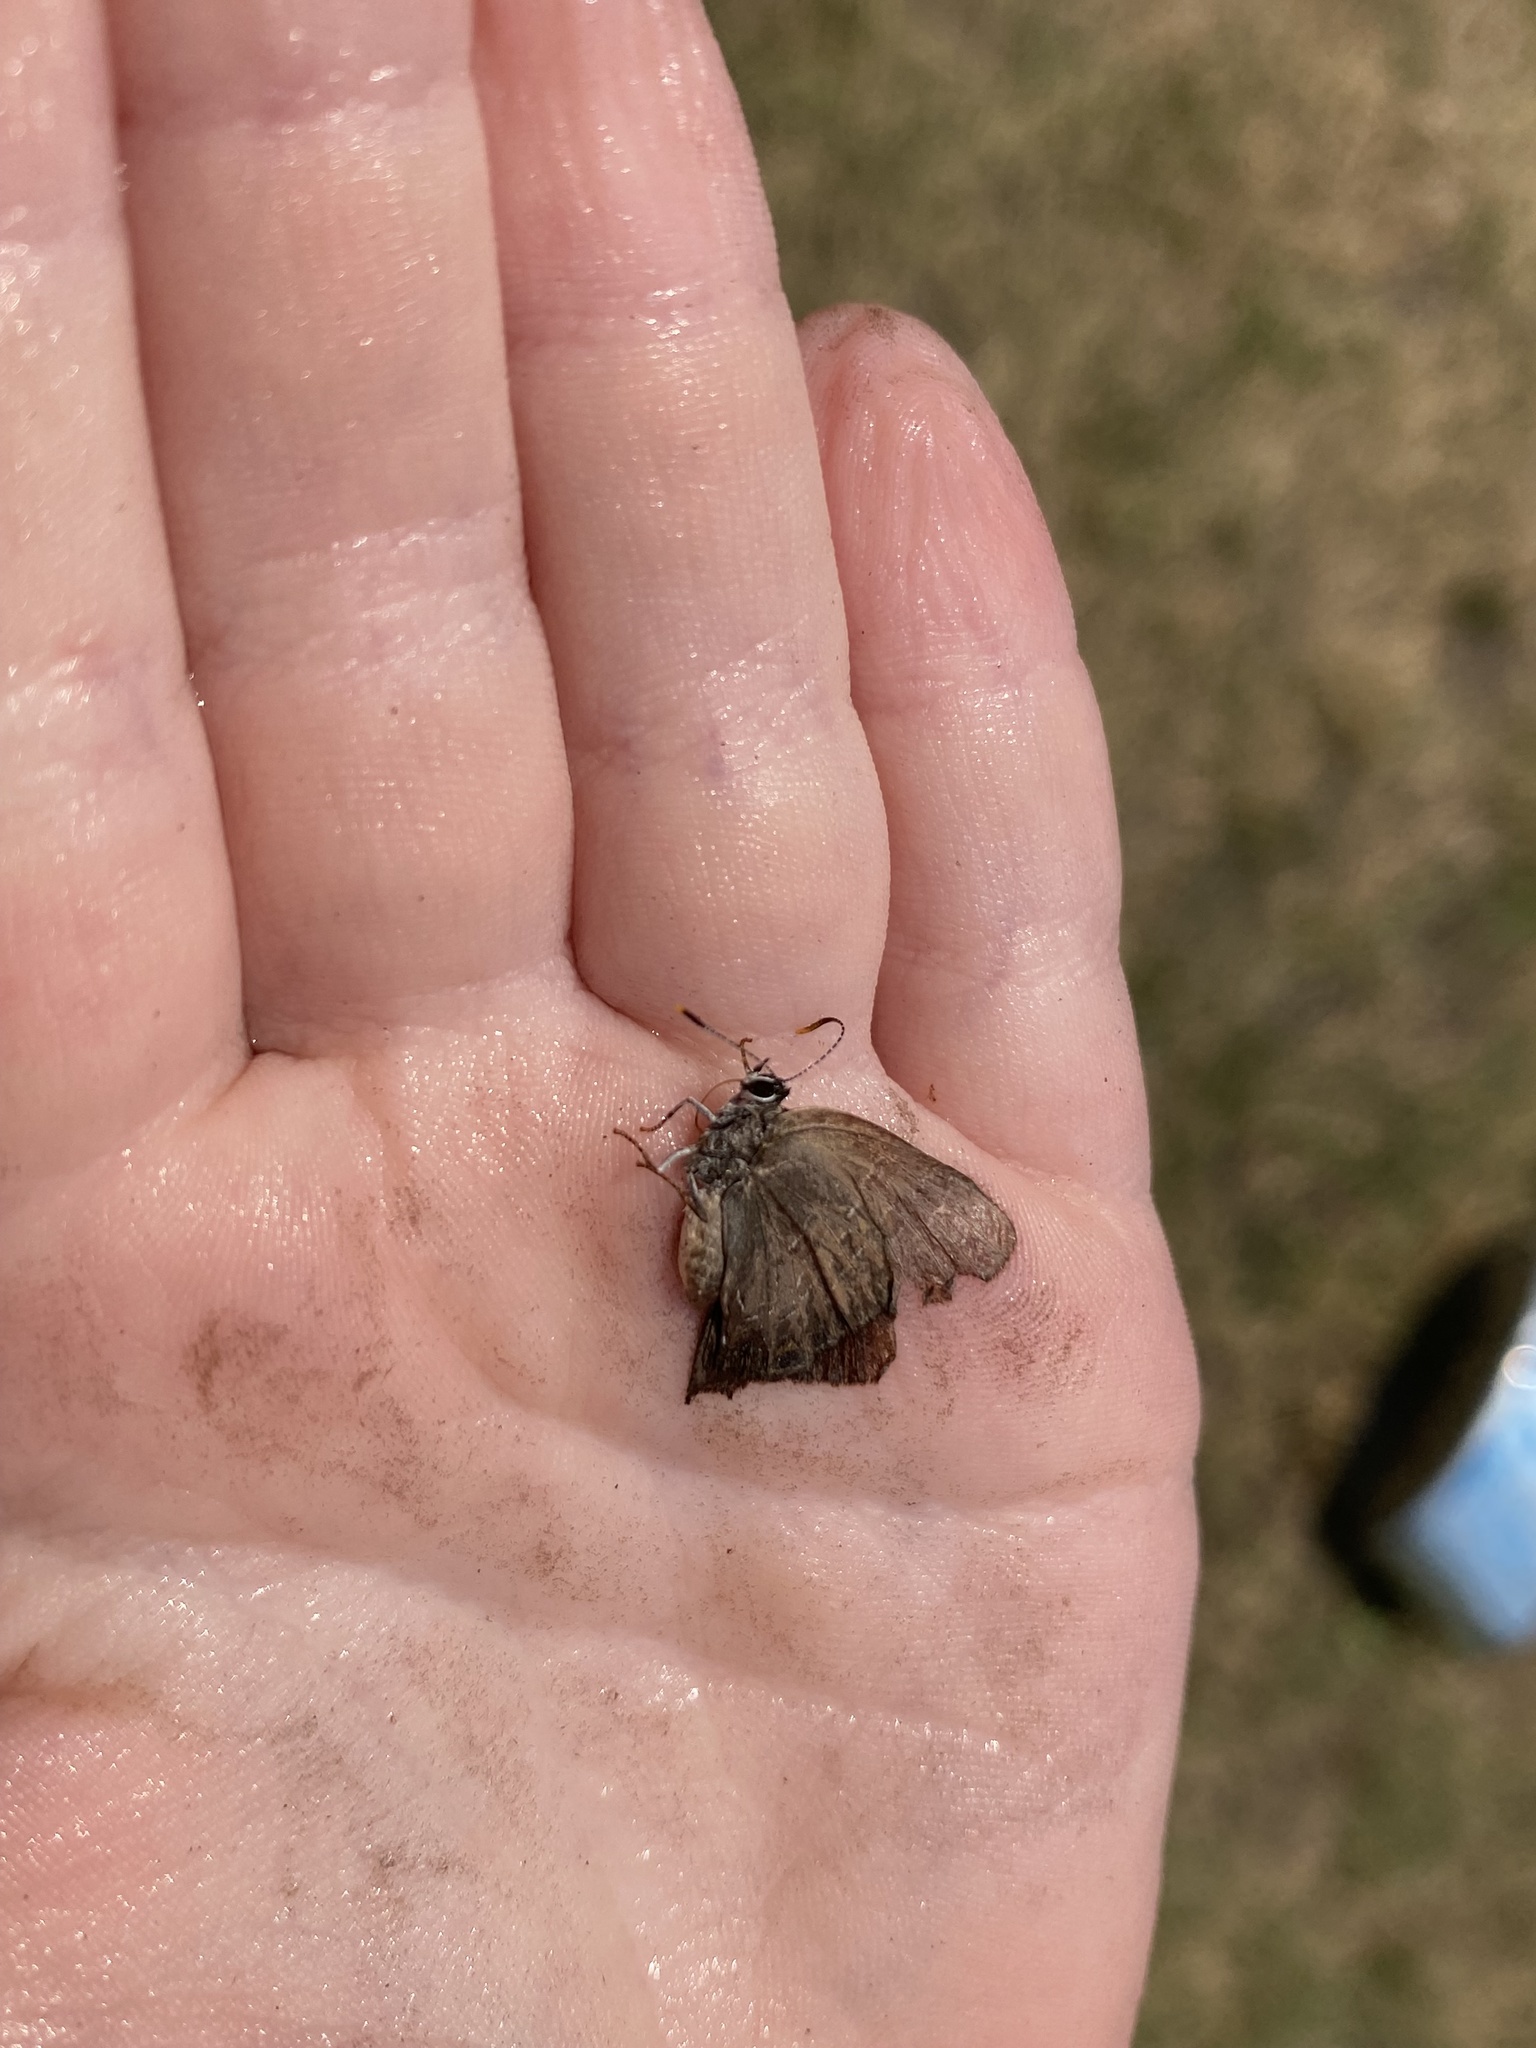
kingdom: Animalia
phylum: Arthropoda
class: Insecta
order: Lepidoptera
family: Lycaenidae
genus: Satyrium
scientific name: Satyrium calanus
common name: Banded hairstreak
